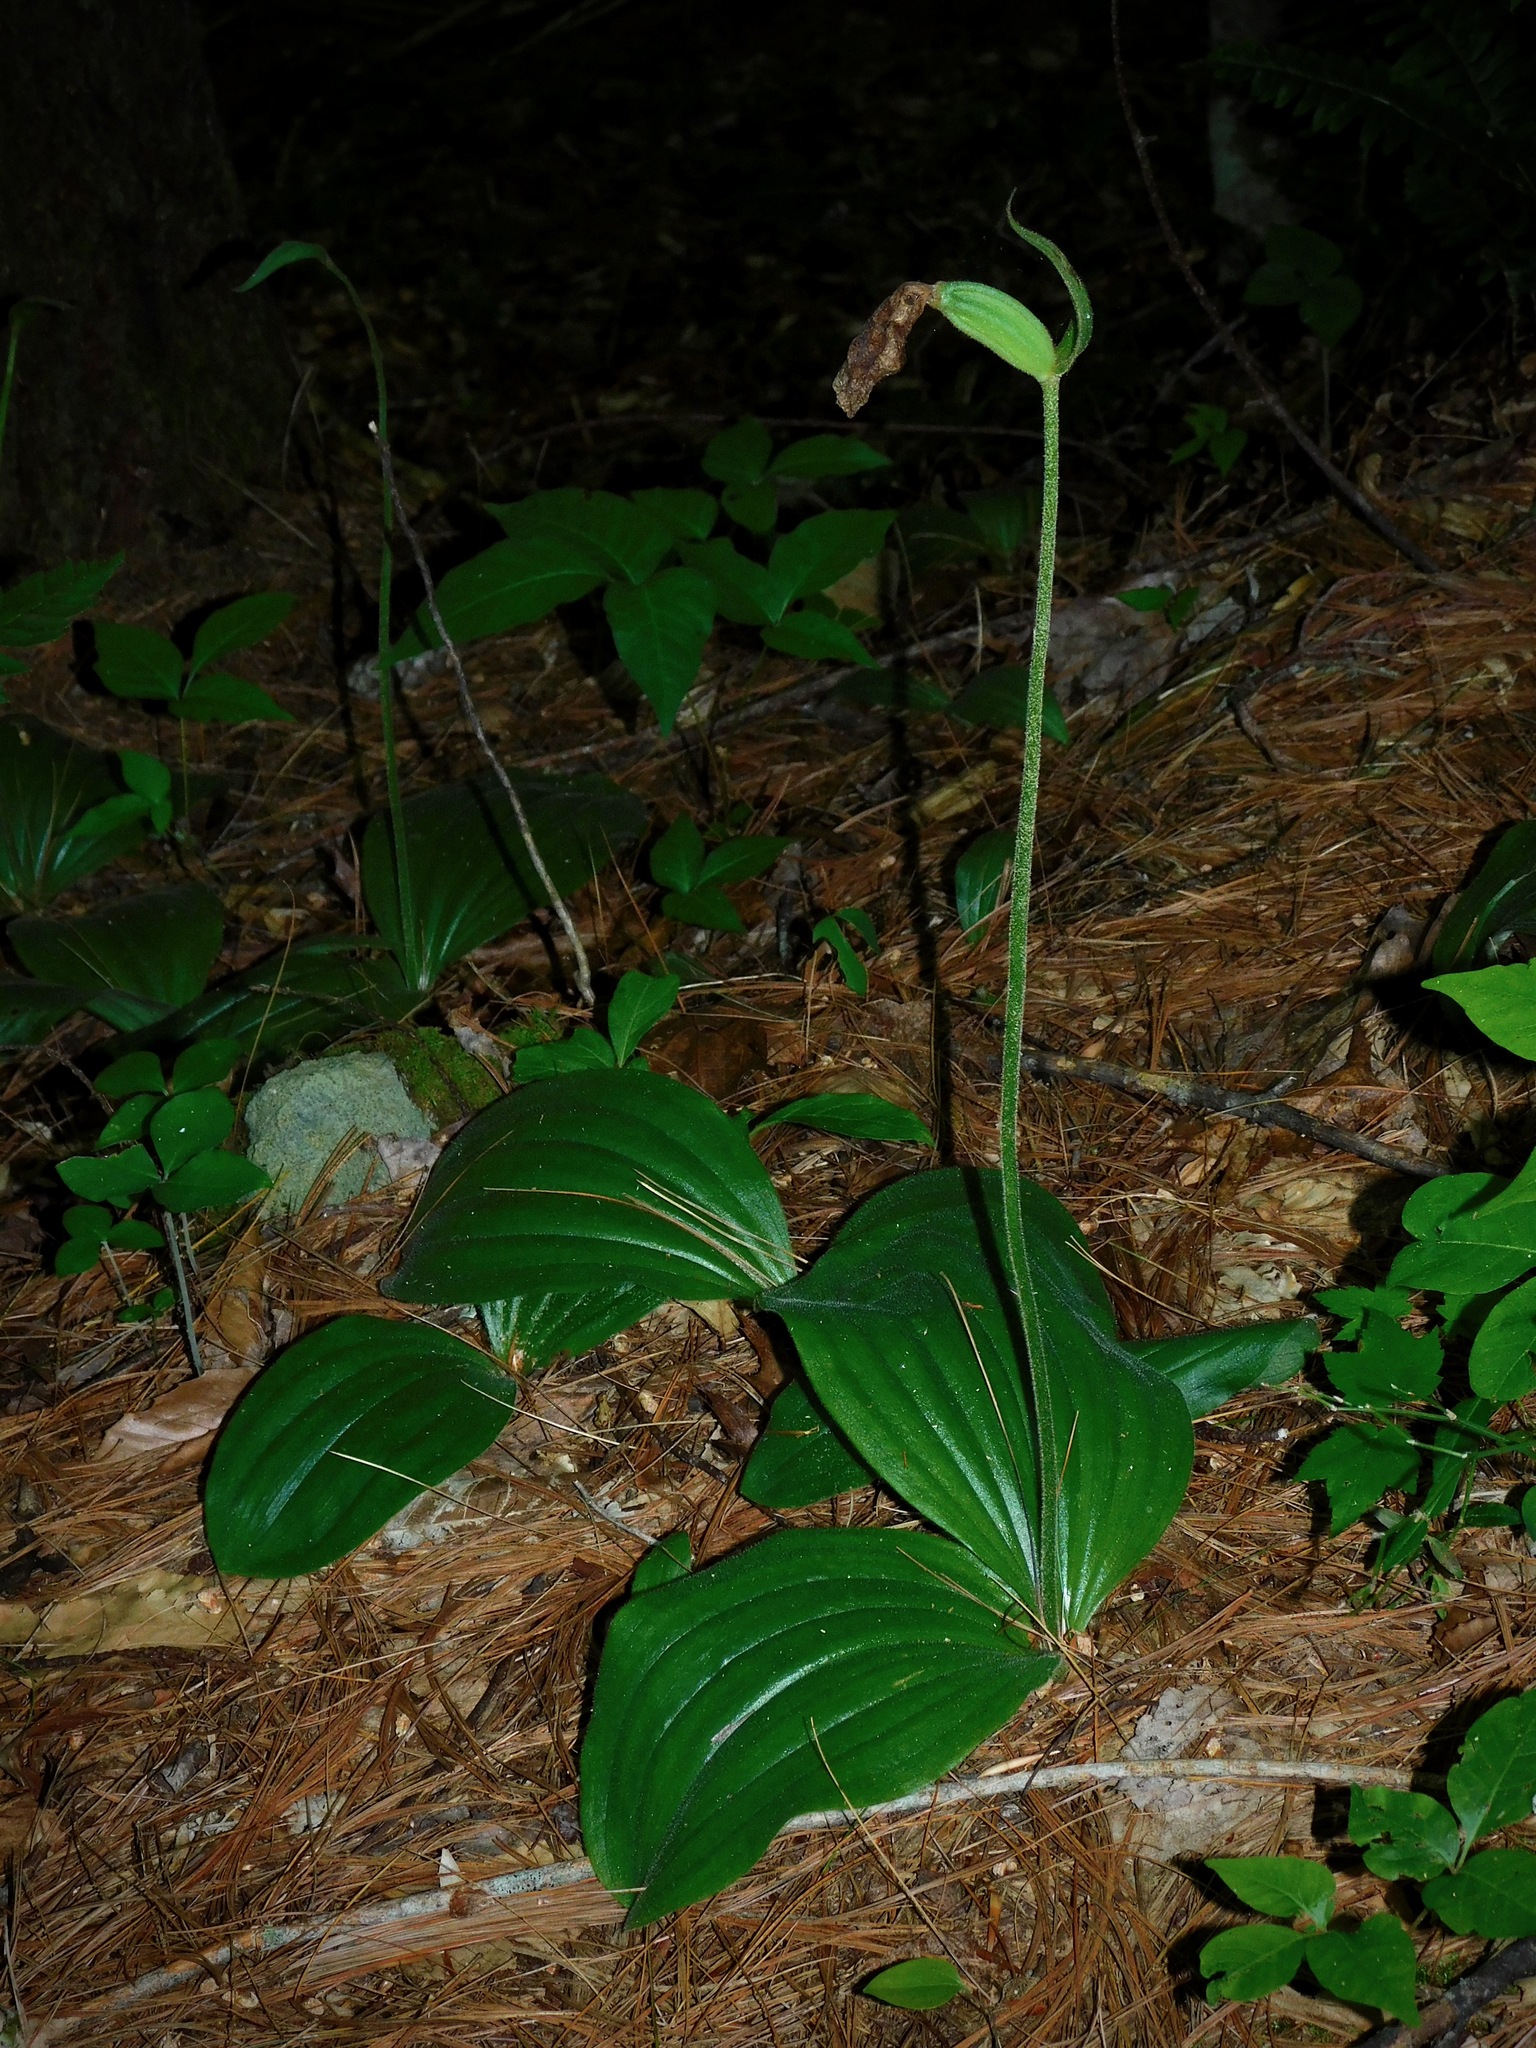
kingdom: Plantae
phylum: Tracheophyta
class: Liliopsida
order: Asparagales
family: Orchidaceae
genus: Cypripedium
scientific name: Cypripedium acaule
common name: Pink lady's-slipper
